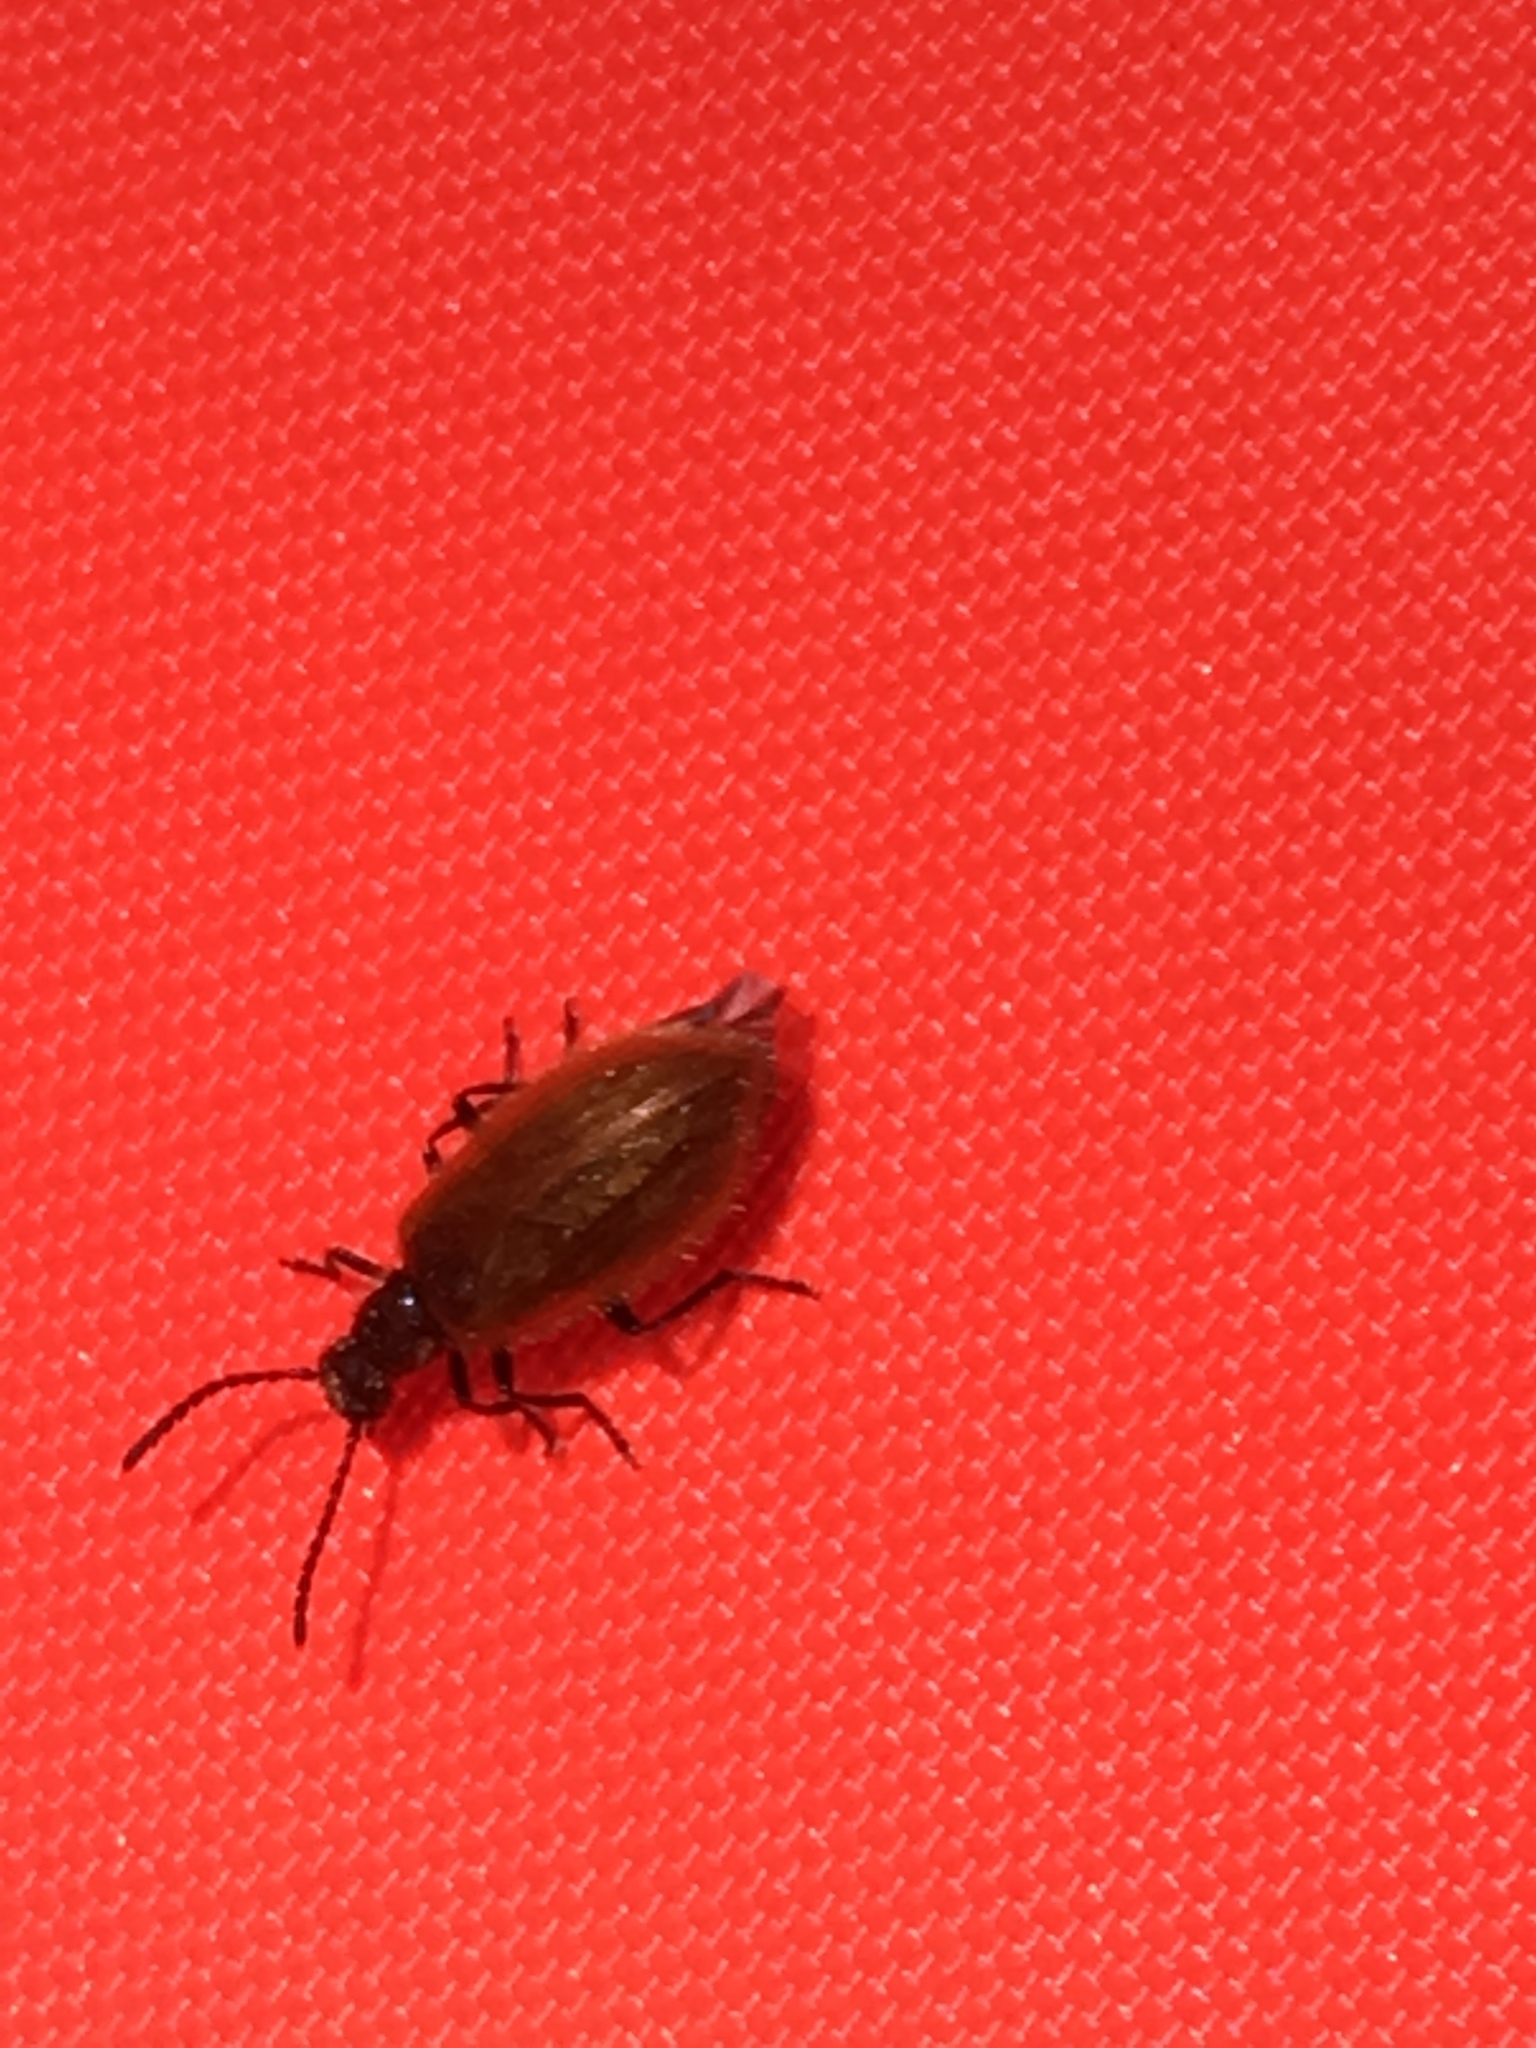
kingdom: Animalia
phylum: Arthropoda
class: Insecta
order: Coleoptera
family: Tenebrionidae
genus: Lagria
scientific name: Lagria hirta
